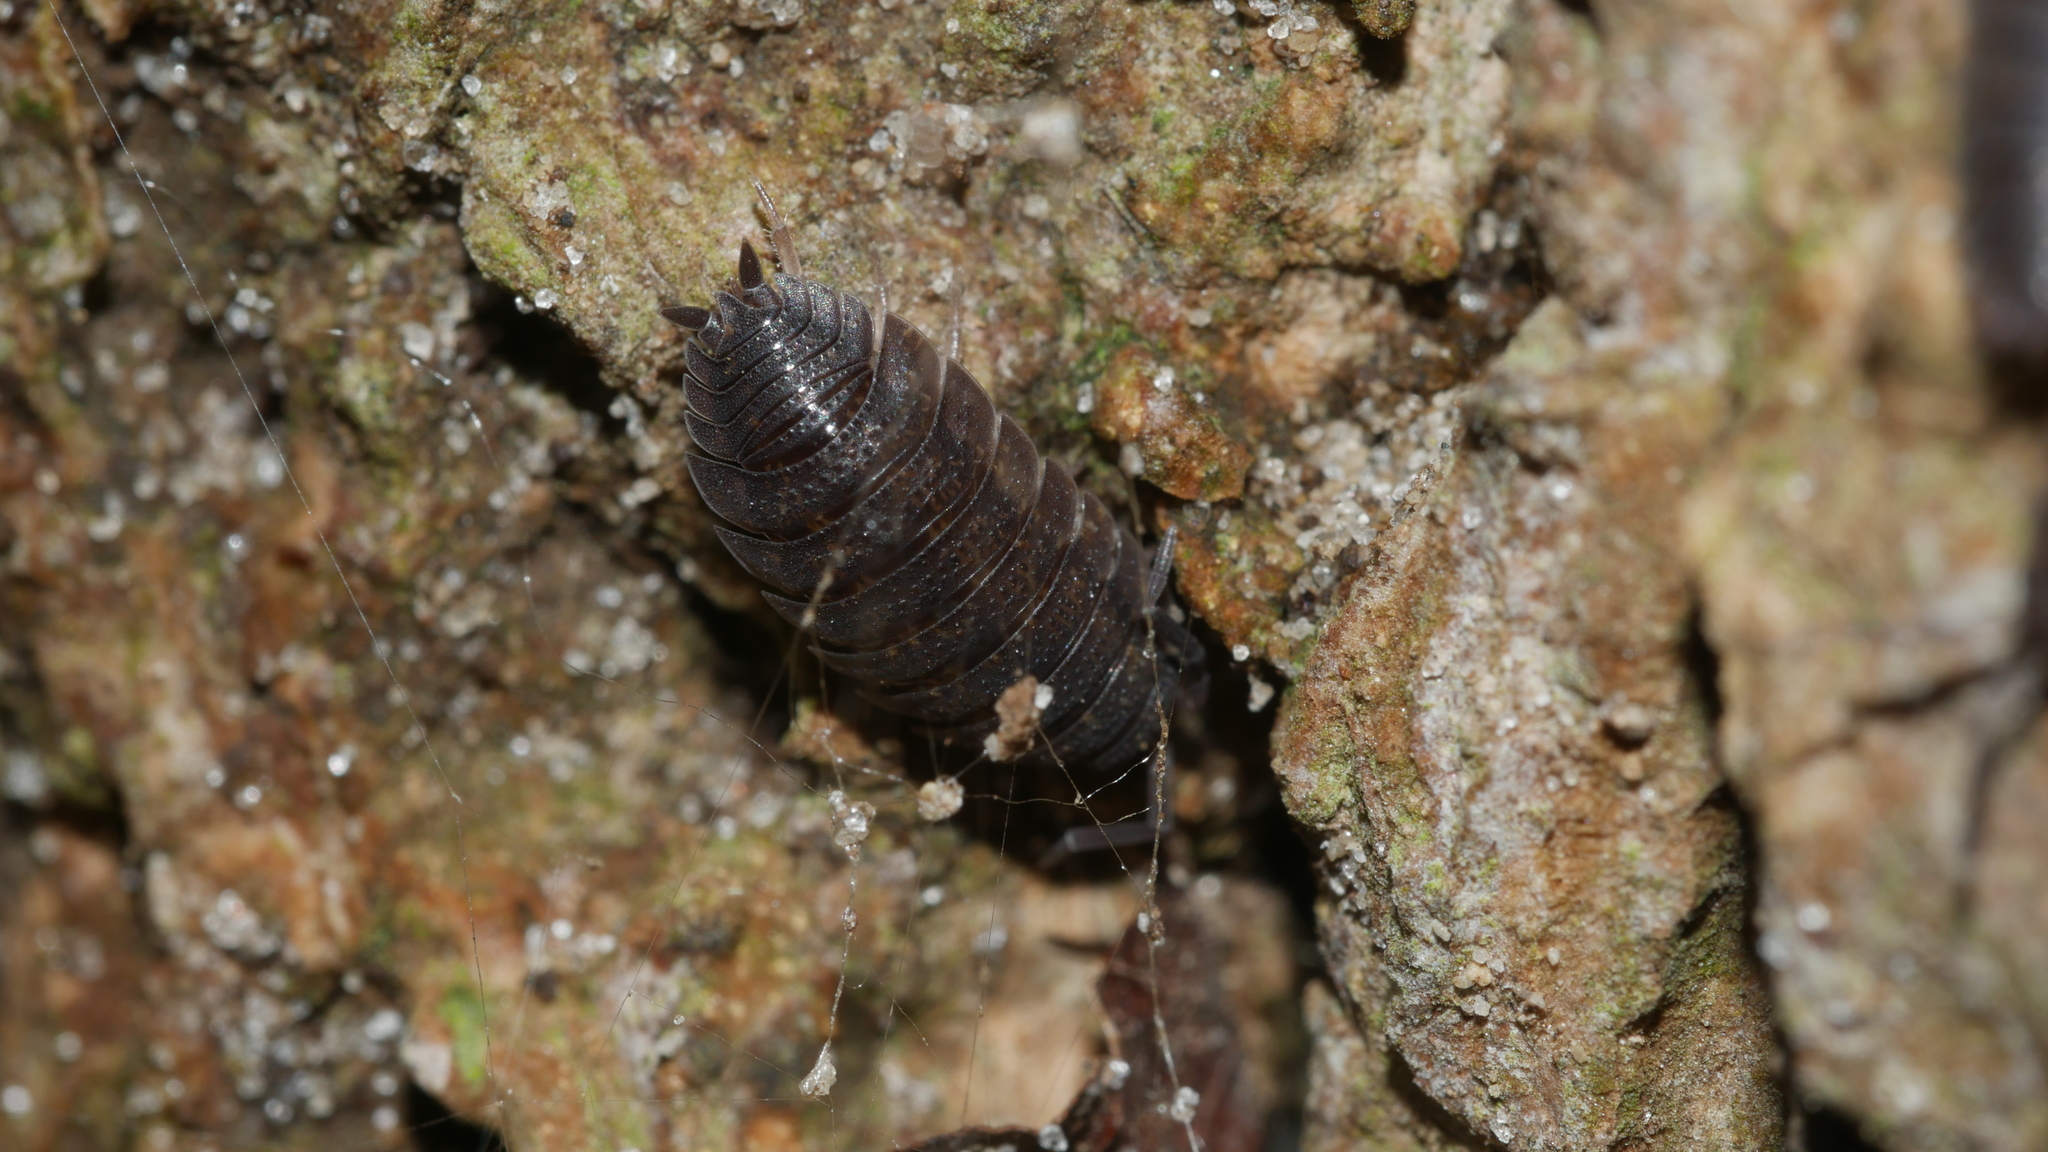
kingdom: Animalia
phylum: Arthropoda
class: Malacostraca
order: Isopoda
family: Porcellionidae
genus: Porcellio
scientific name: Porcellio scaber
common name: Common rough woodlouse
